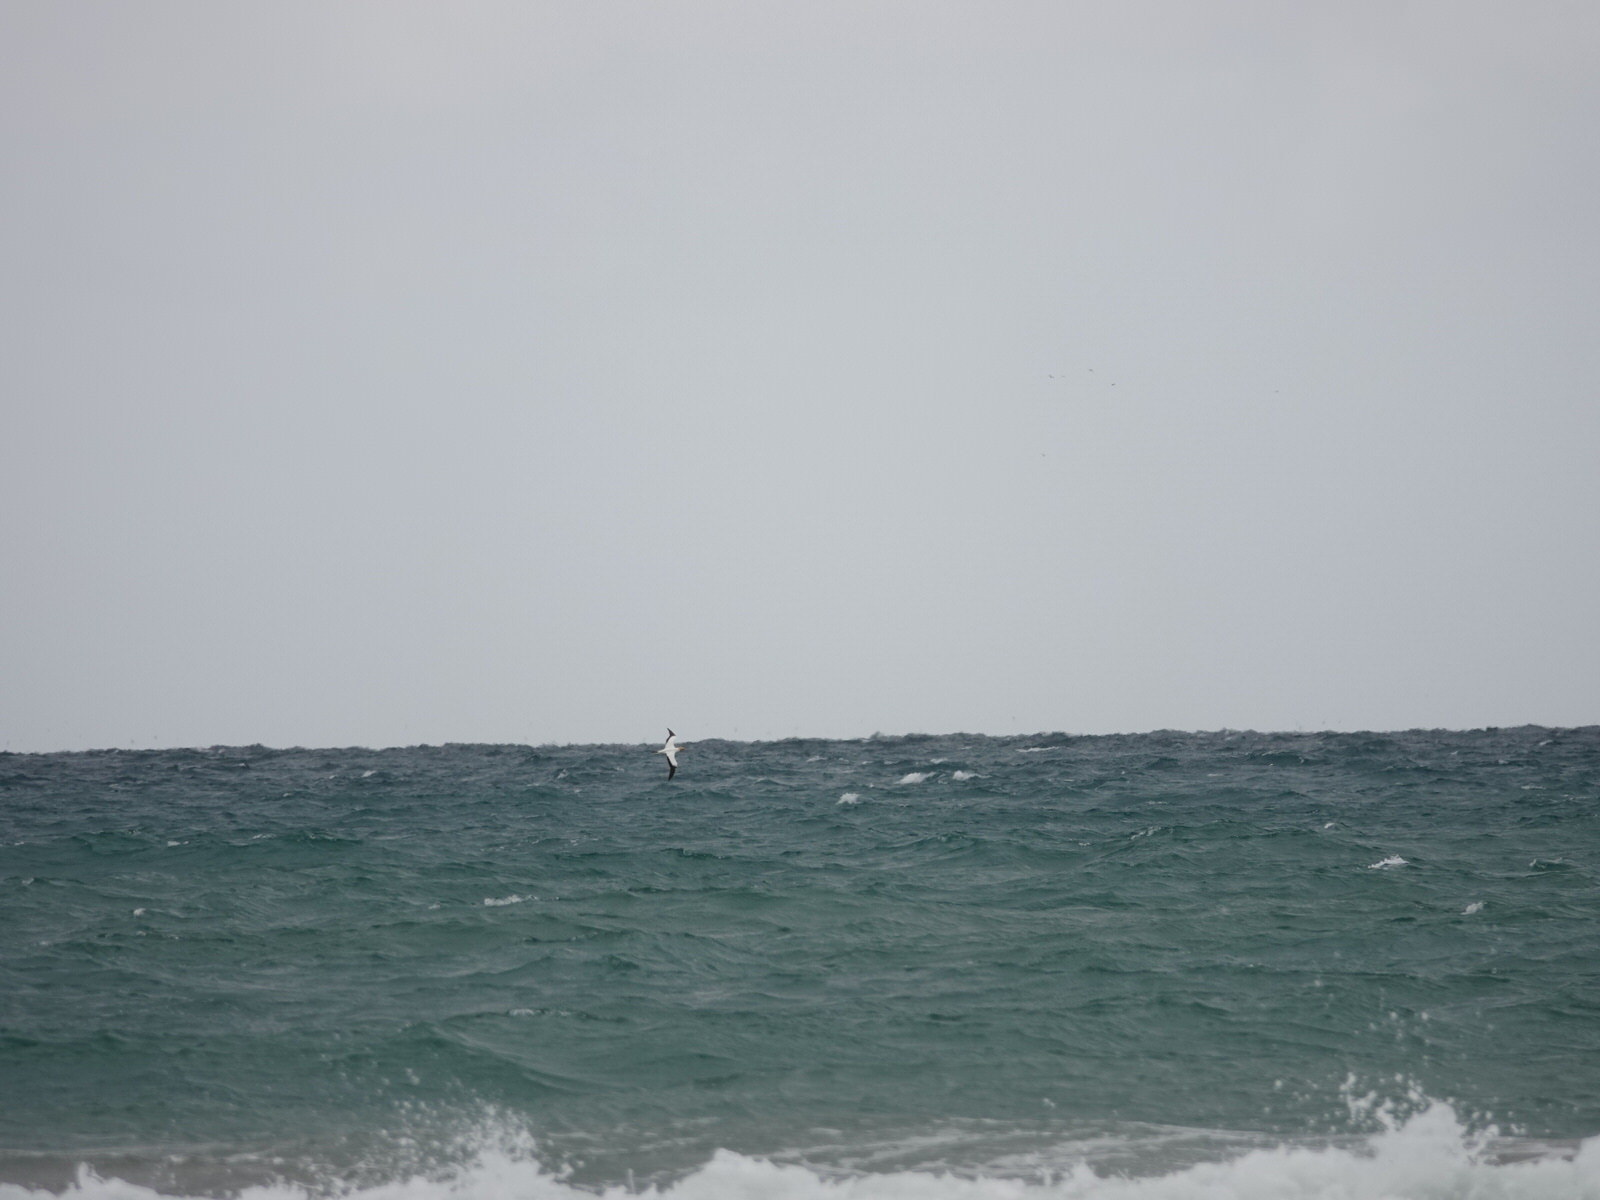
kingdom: Animalia
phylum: Chordata
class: Aves
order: Suliformes
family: Sulidae
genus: Morus
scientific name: Morus serrator
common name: Australasian gannet
